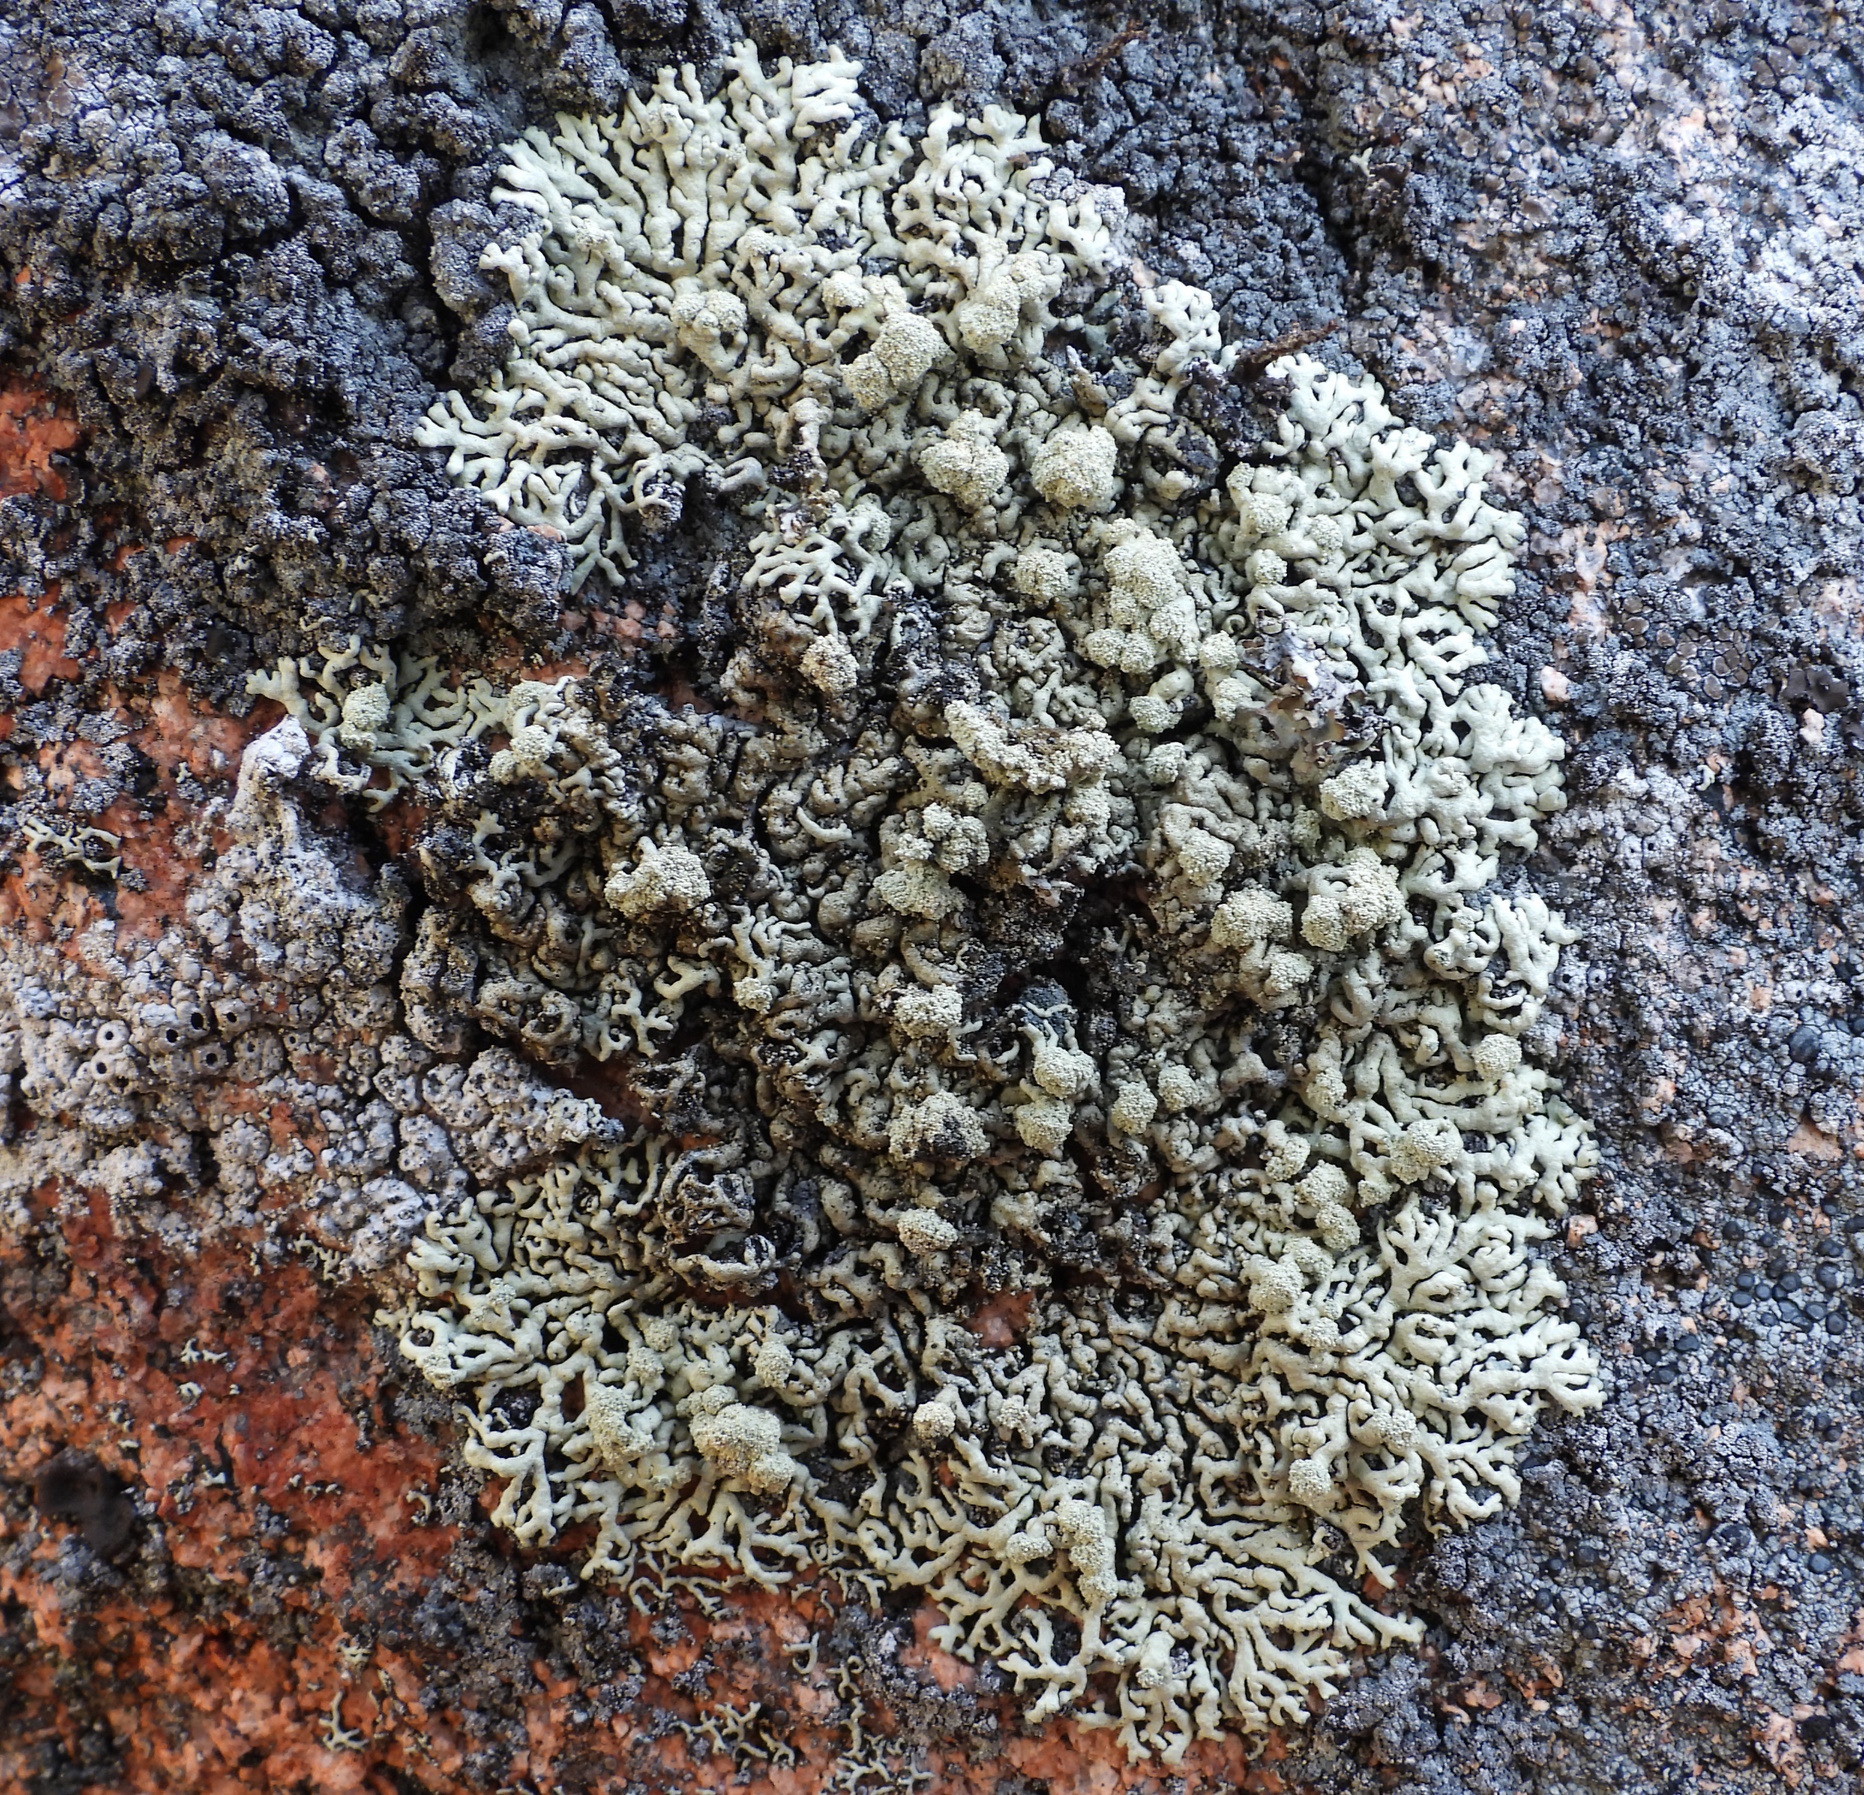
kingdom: Fungi
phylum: Ascomycota
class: Lecanoromycetes
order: Lecanorales
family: Parmeliaceae
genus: Arctoparmelia
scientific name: Arctoparmelia incurva
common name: Bent ring lichen
